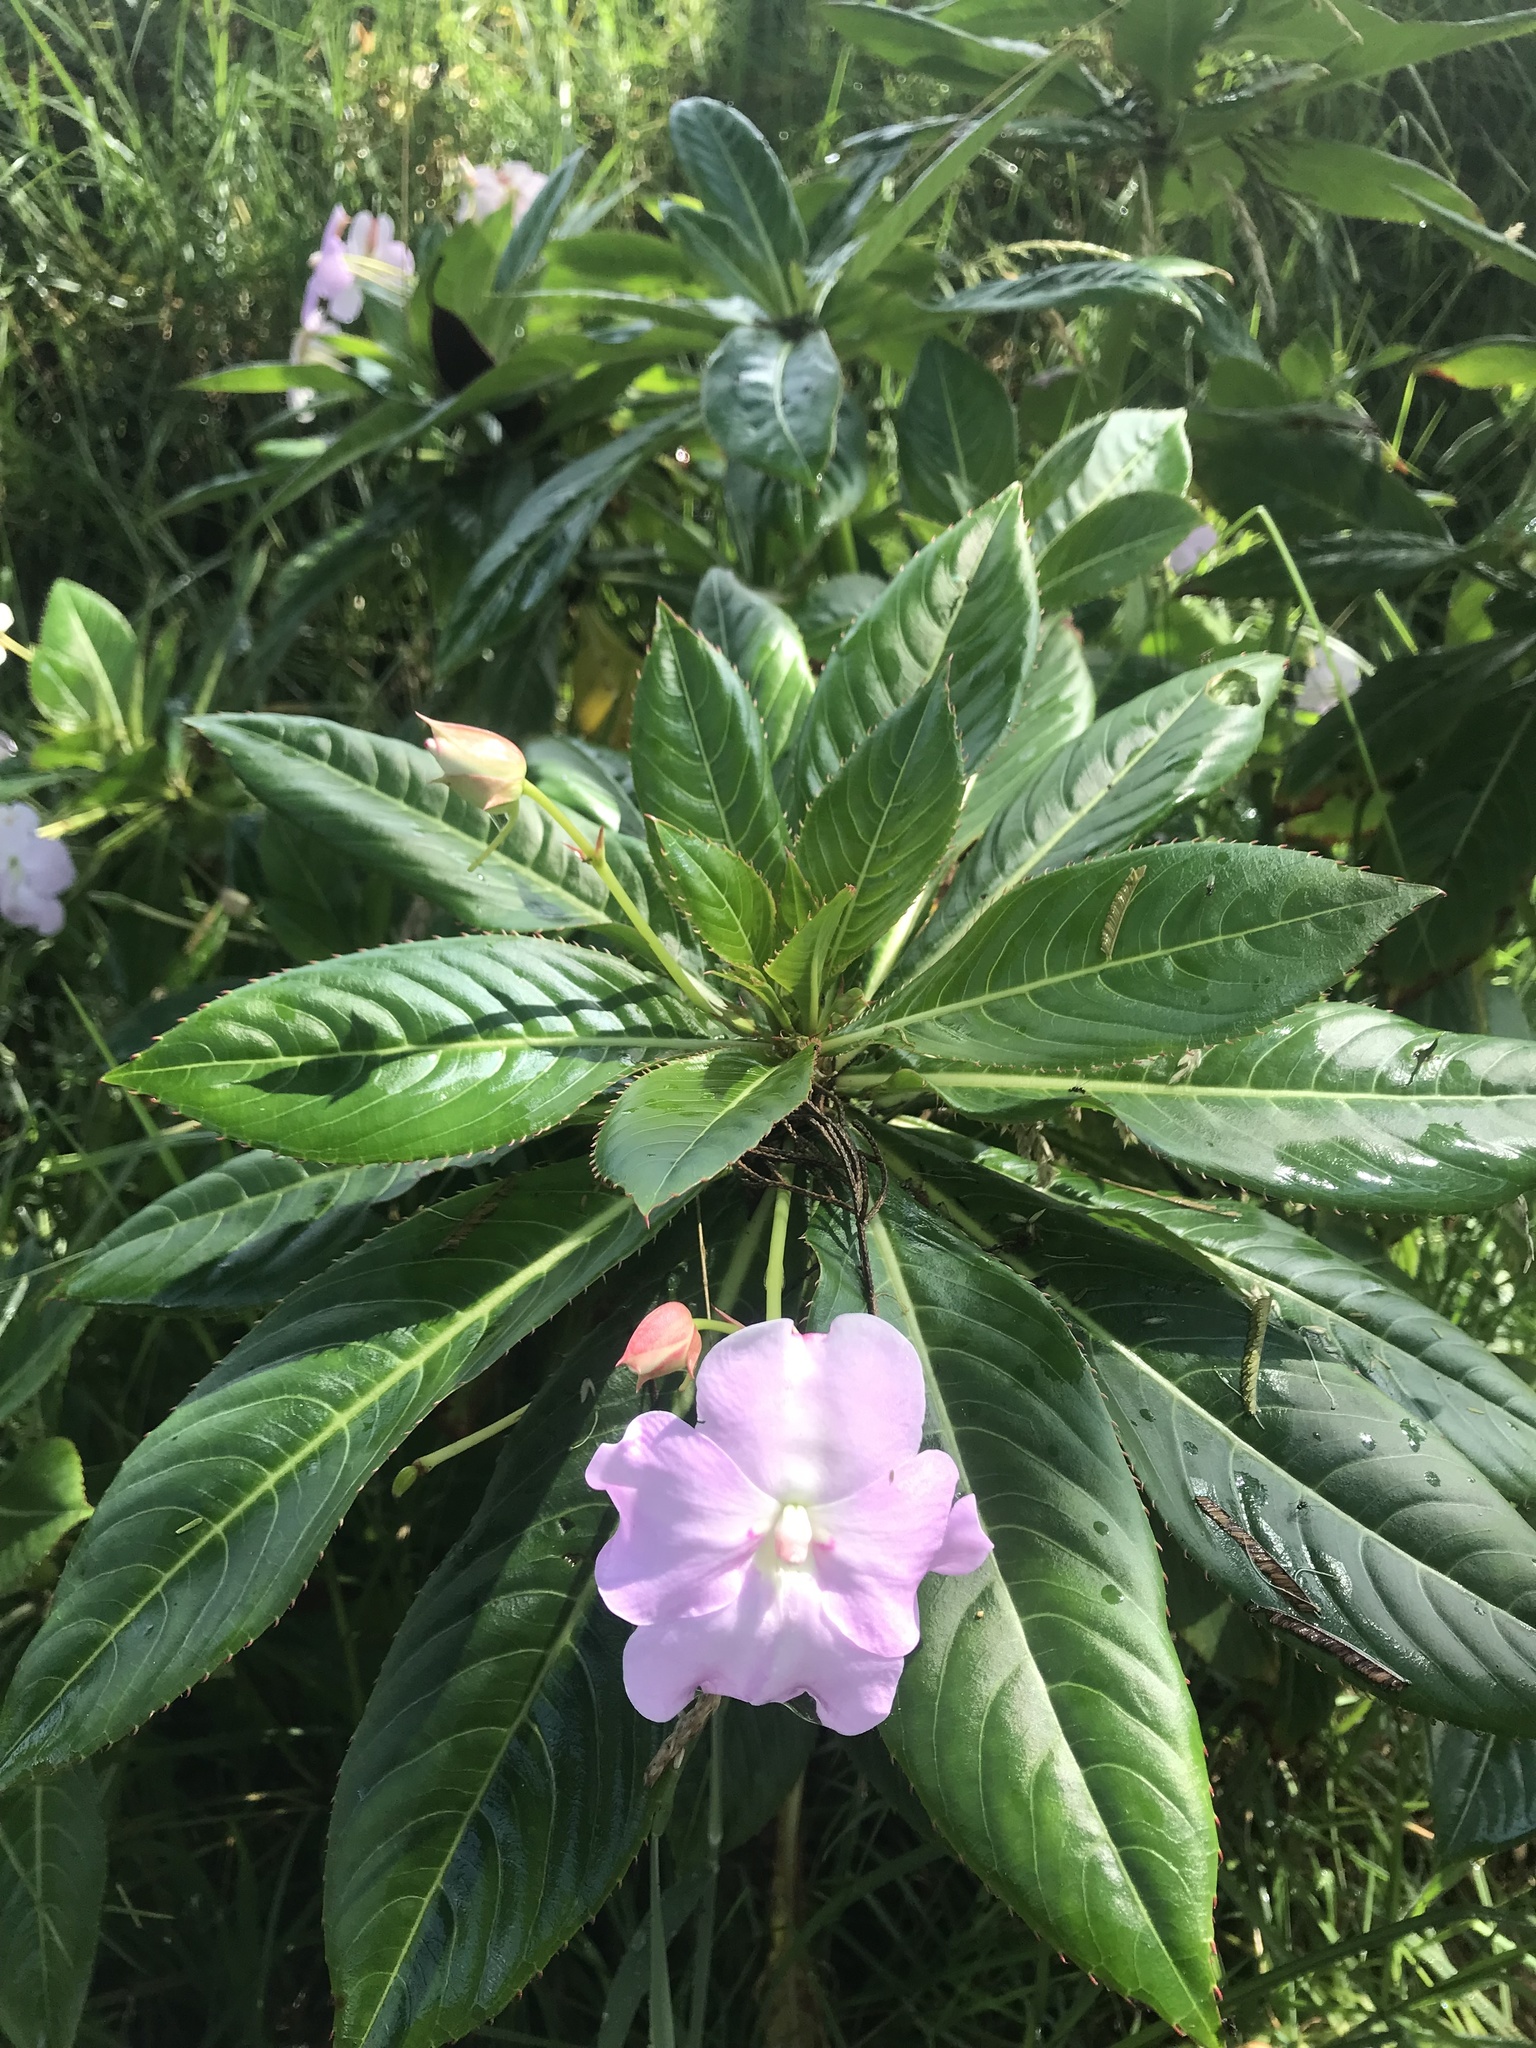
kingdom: Plantae
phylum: Tracheophyta
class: Magnoliopsida
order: Ericales
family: Balsaminaceae
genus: Impatiens
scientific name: Impatiens sodenii
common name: Oliver's touch-me-not
